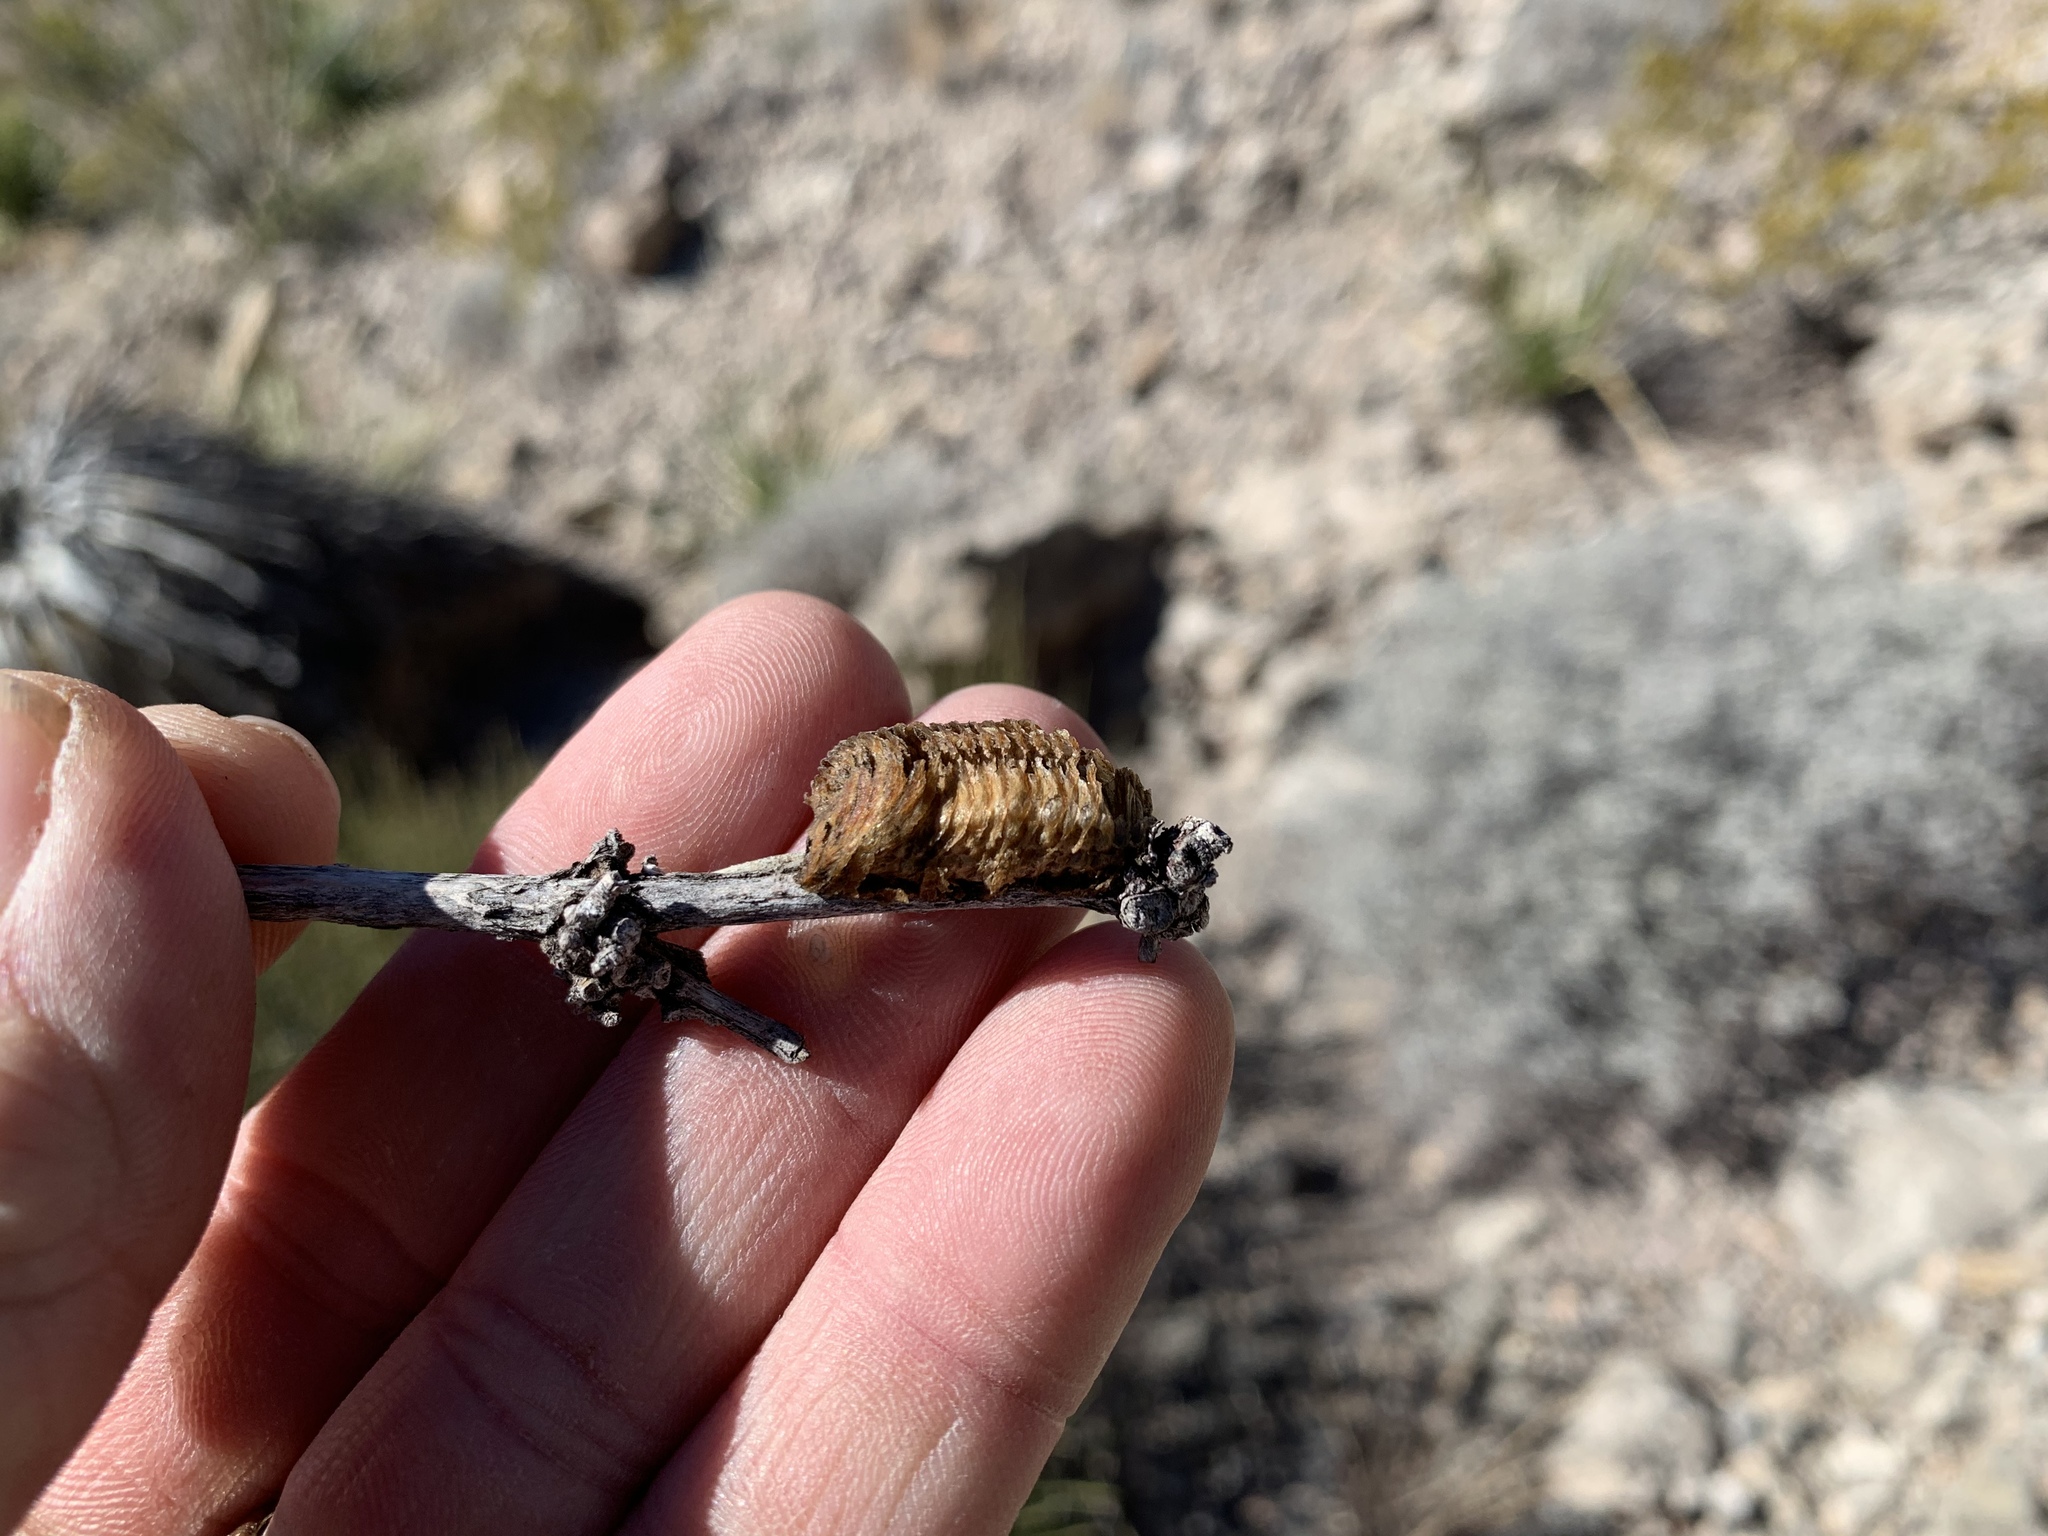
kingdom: Animalia
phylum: Arthropoda
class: Insecta
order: Mantodea
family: Mantidae
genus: Stagmomantis
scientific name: Stagmomantis limbata
